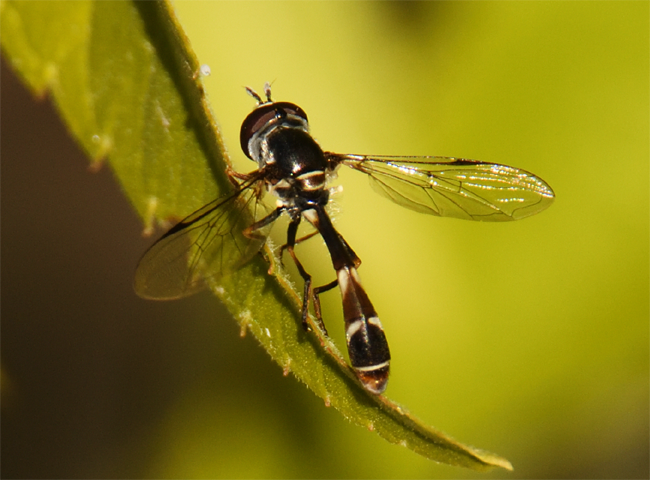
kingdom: Animalia
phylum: Arthropoda
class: Insecta
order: Diptera
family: Syrphidae
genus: Dioprosopa
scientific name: Dioprosopa clavatus
